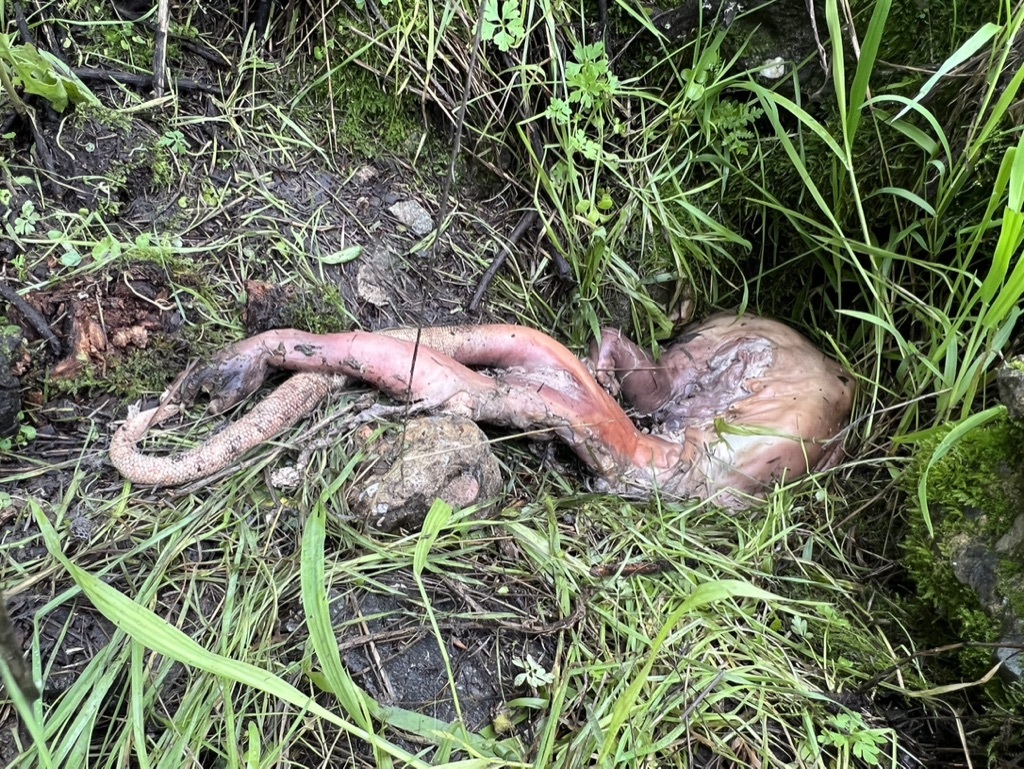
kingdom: Animalia
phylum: Chordata
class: Mammalia
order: Didelphimorphia
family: Didelphidae
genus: Didelphis
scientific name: Didelphis virginiana
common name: Virginia opossum
